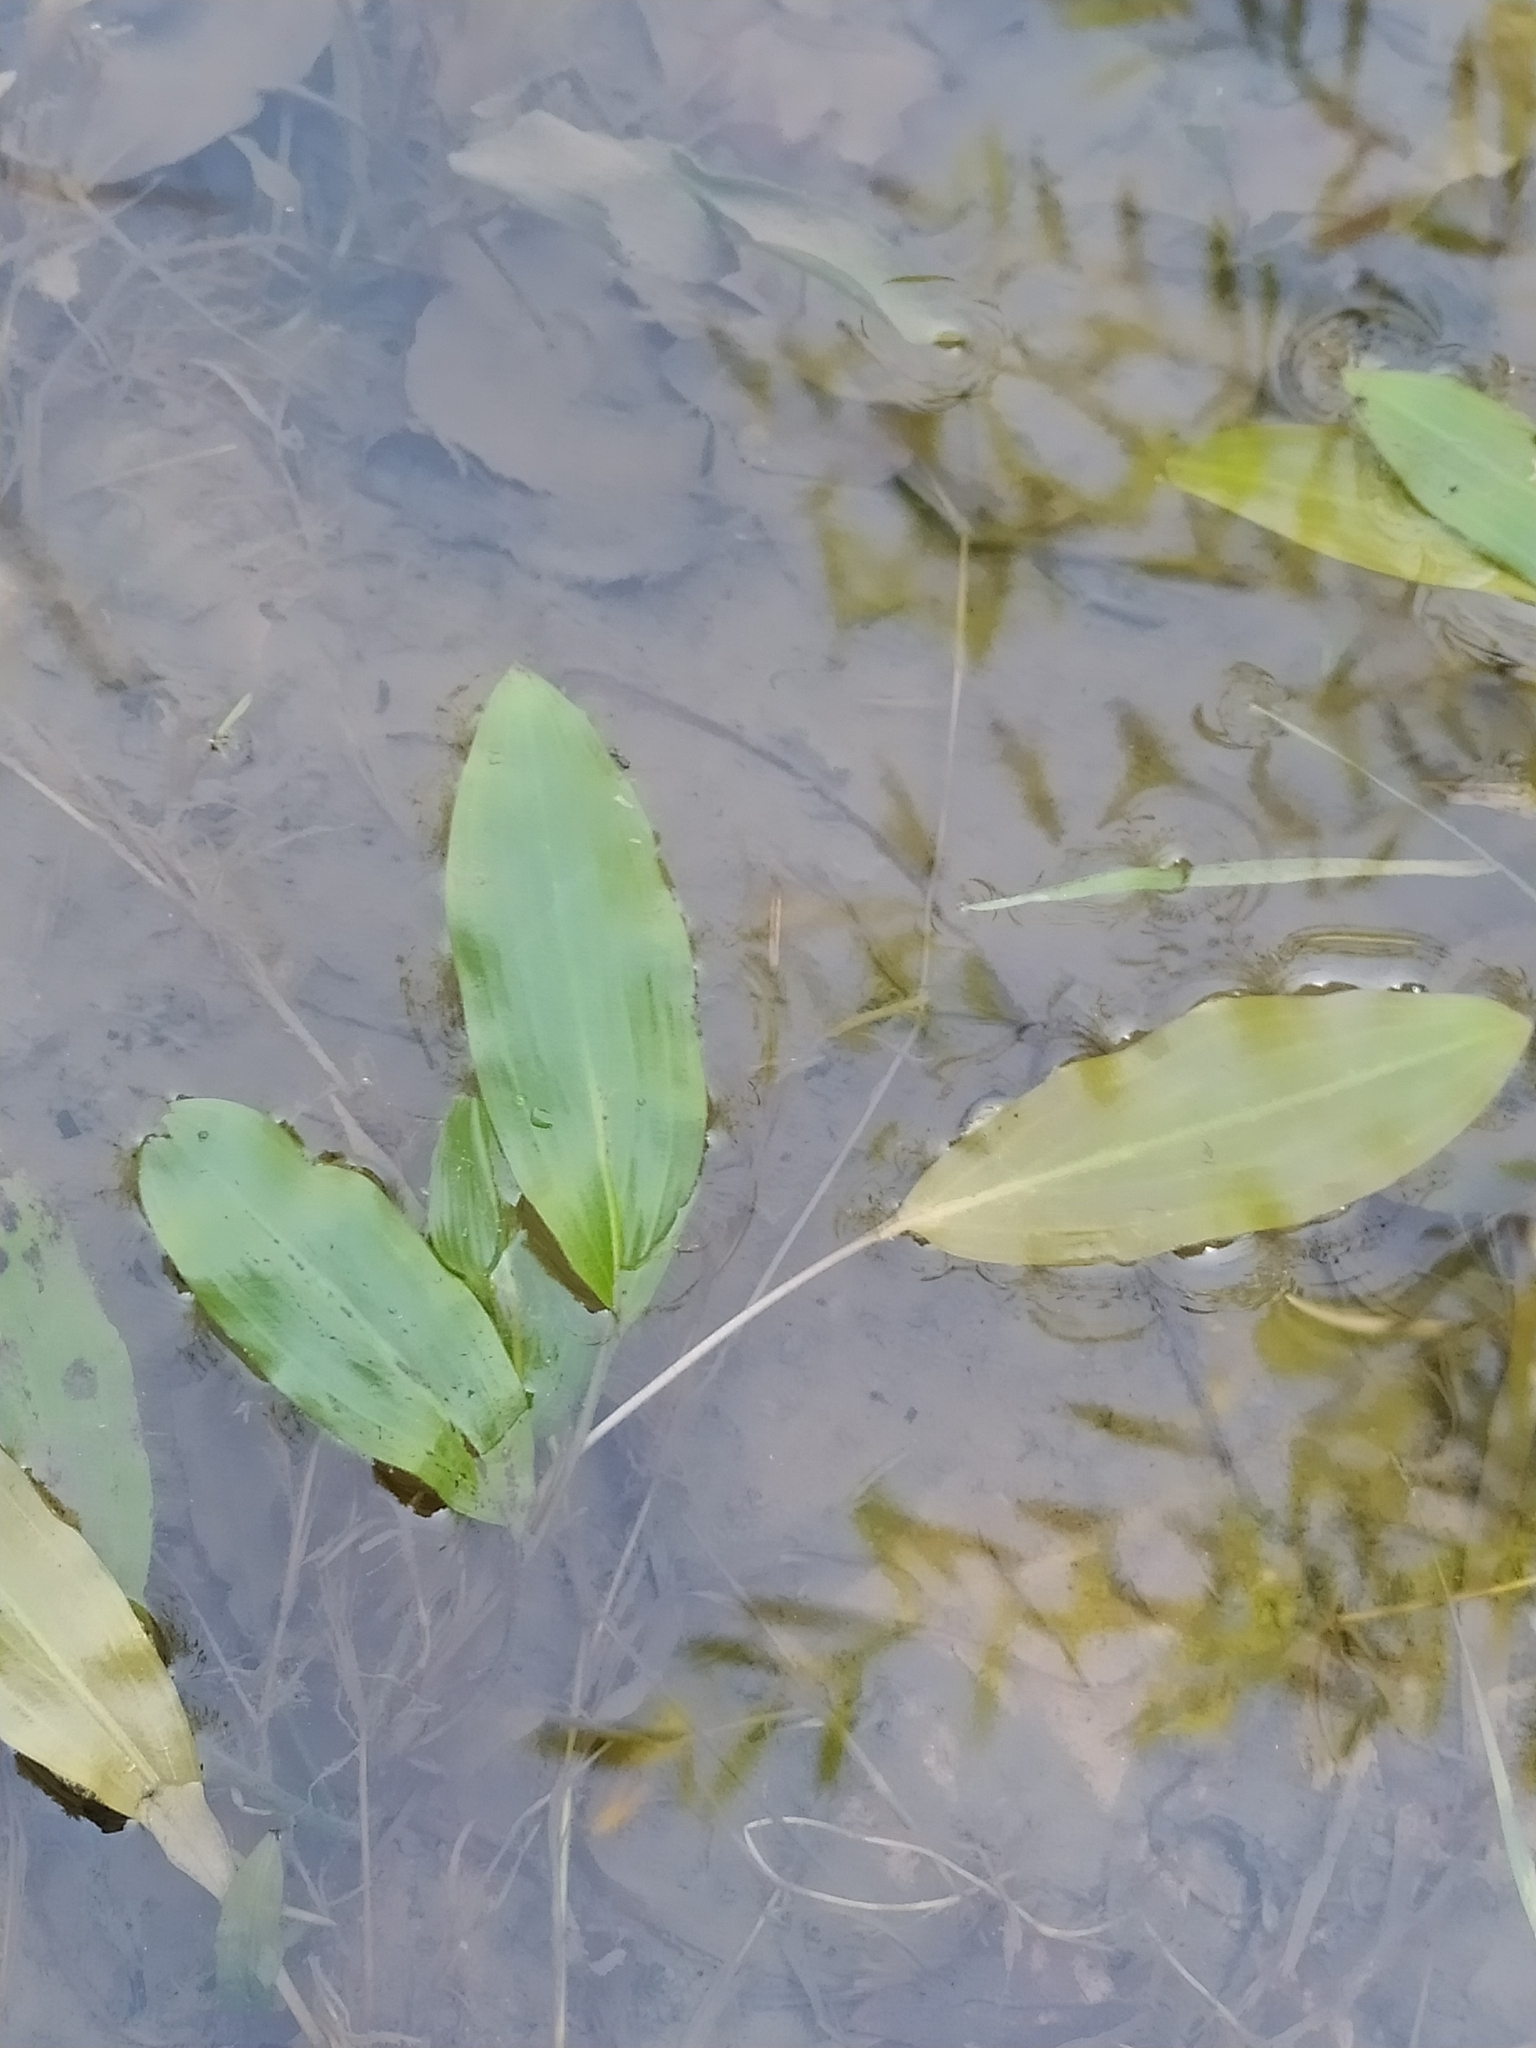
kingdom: Plantae
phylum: Tracheophyta
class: Liliopsida
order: Alismatales
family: Potamogetonaceae
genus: Potamogeton
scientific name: Potamogeton nodosus
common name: Loddon pondweed
